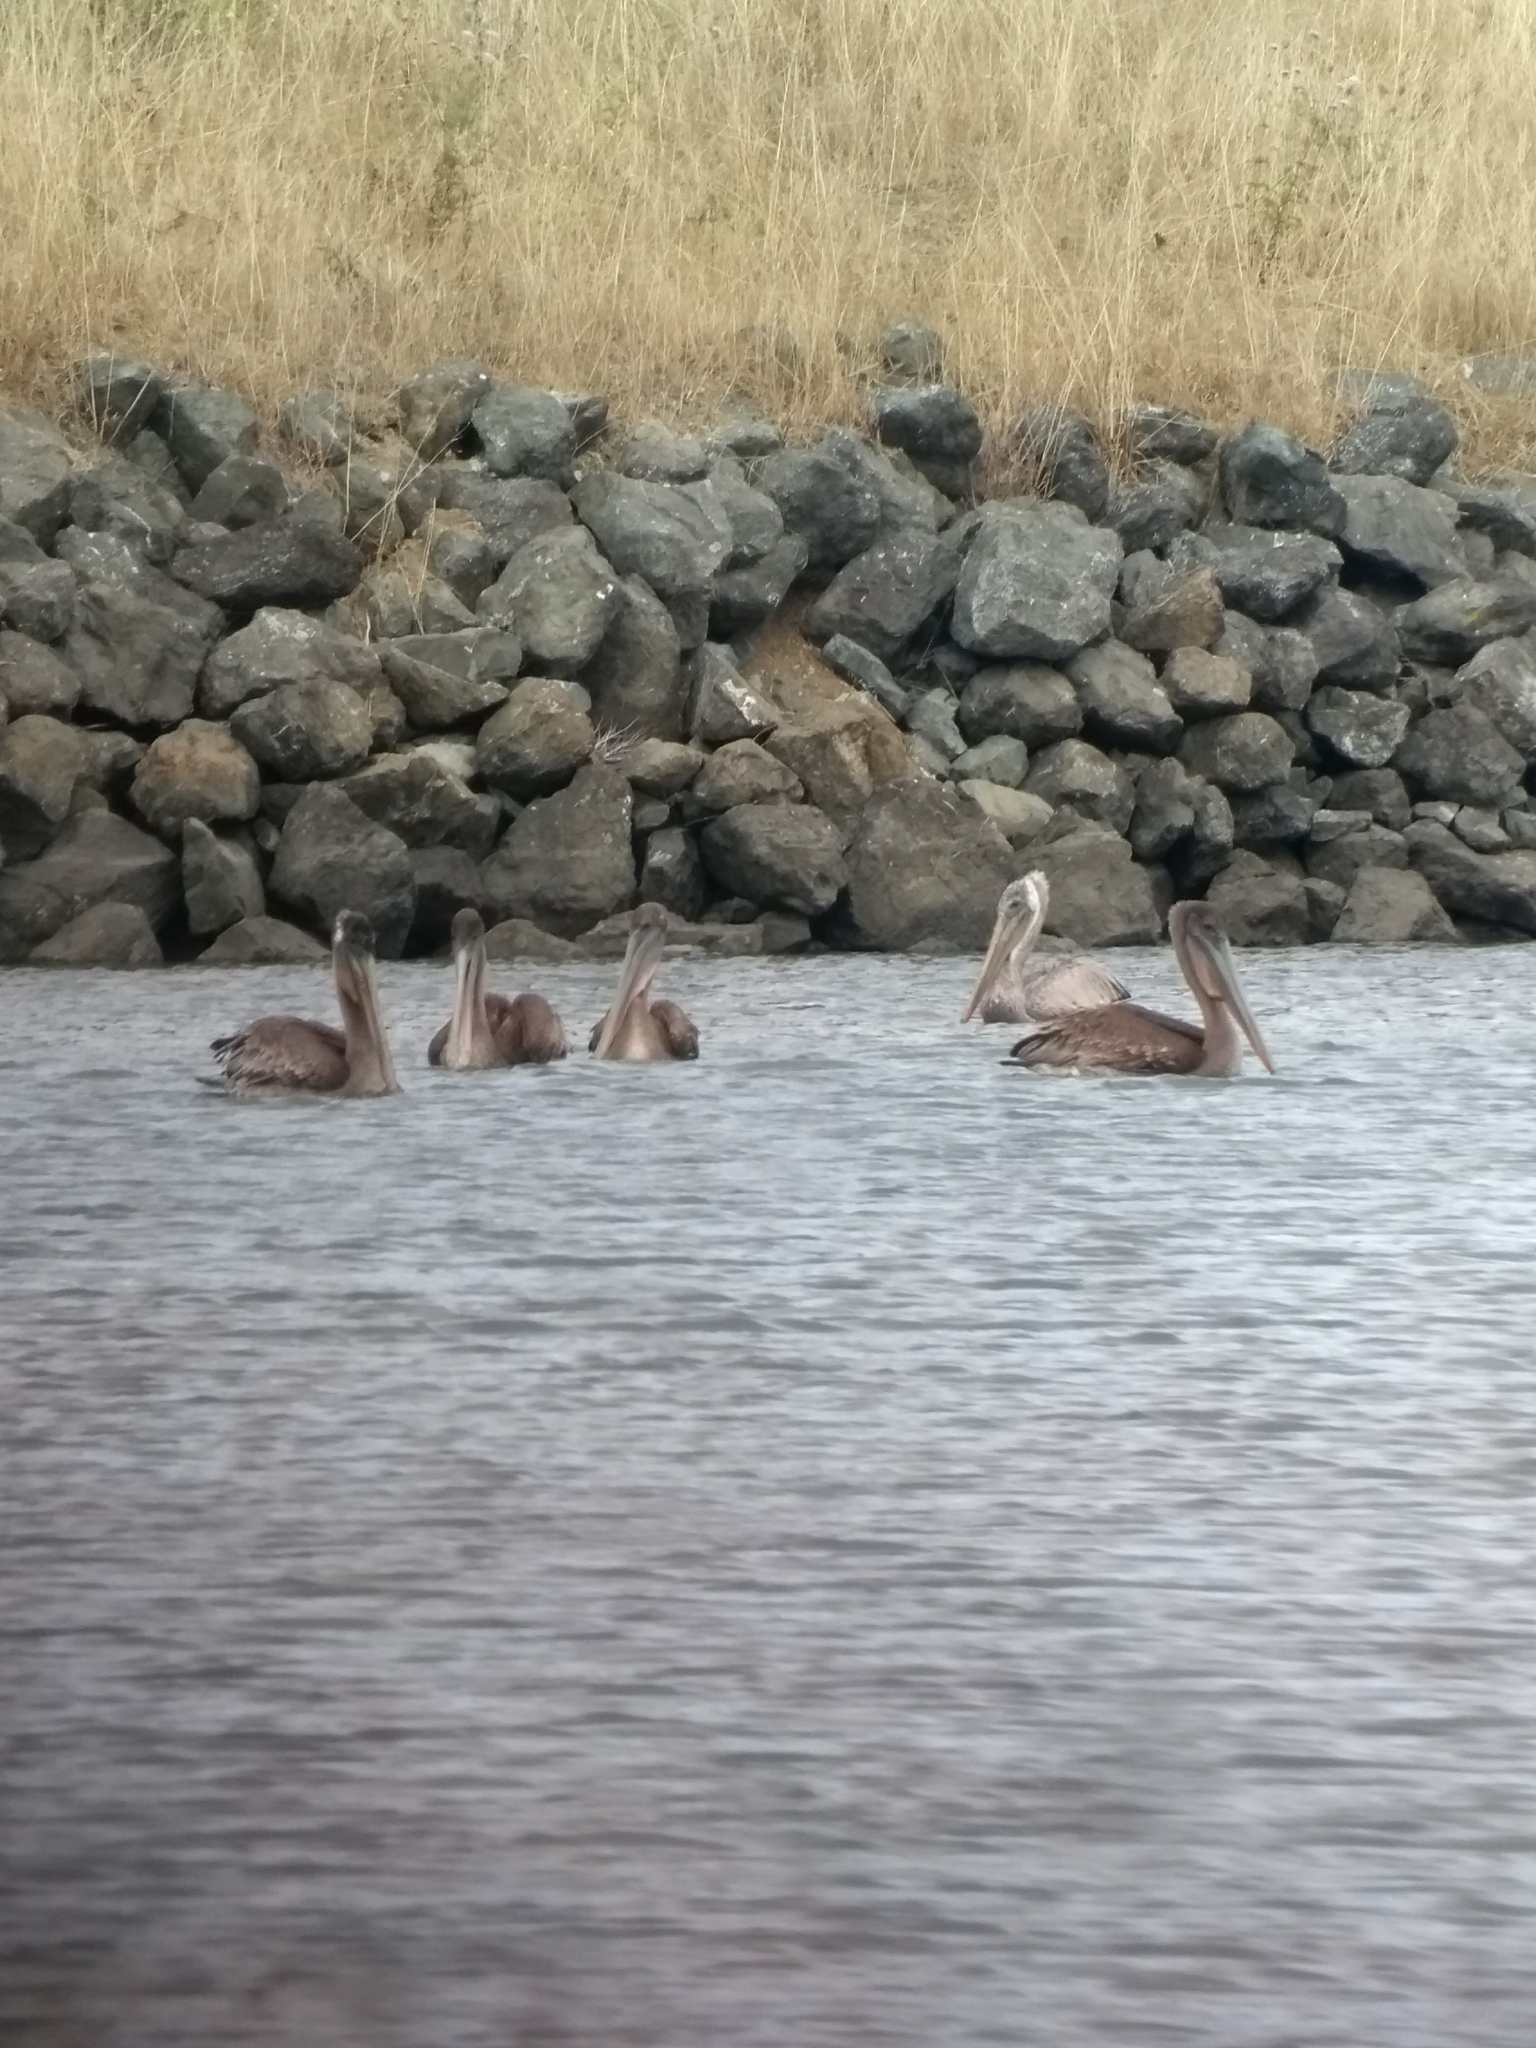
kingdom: Animalia
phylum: Chordata
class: Aves
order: Pelecaniformes
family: Pelecanidae
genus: Pelecanus
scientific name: Pelecanus occidentalis
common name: Brown pelican
